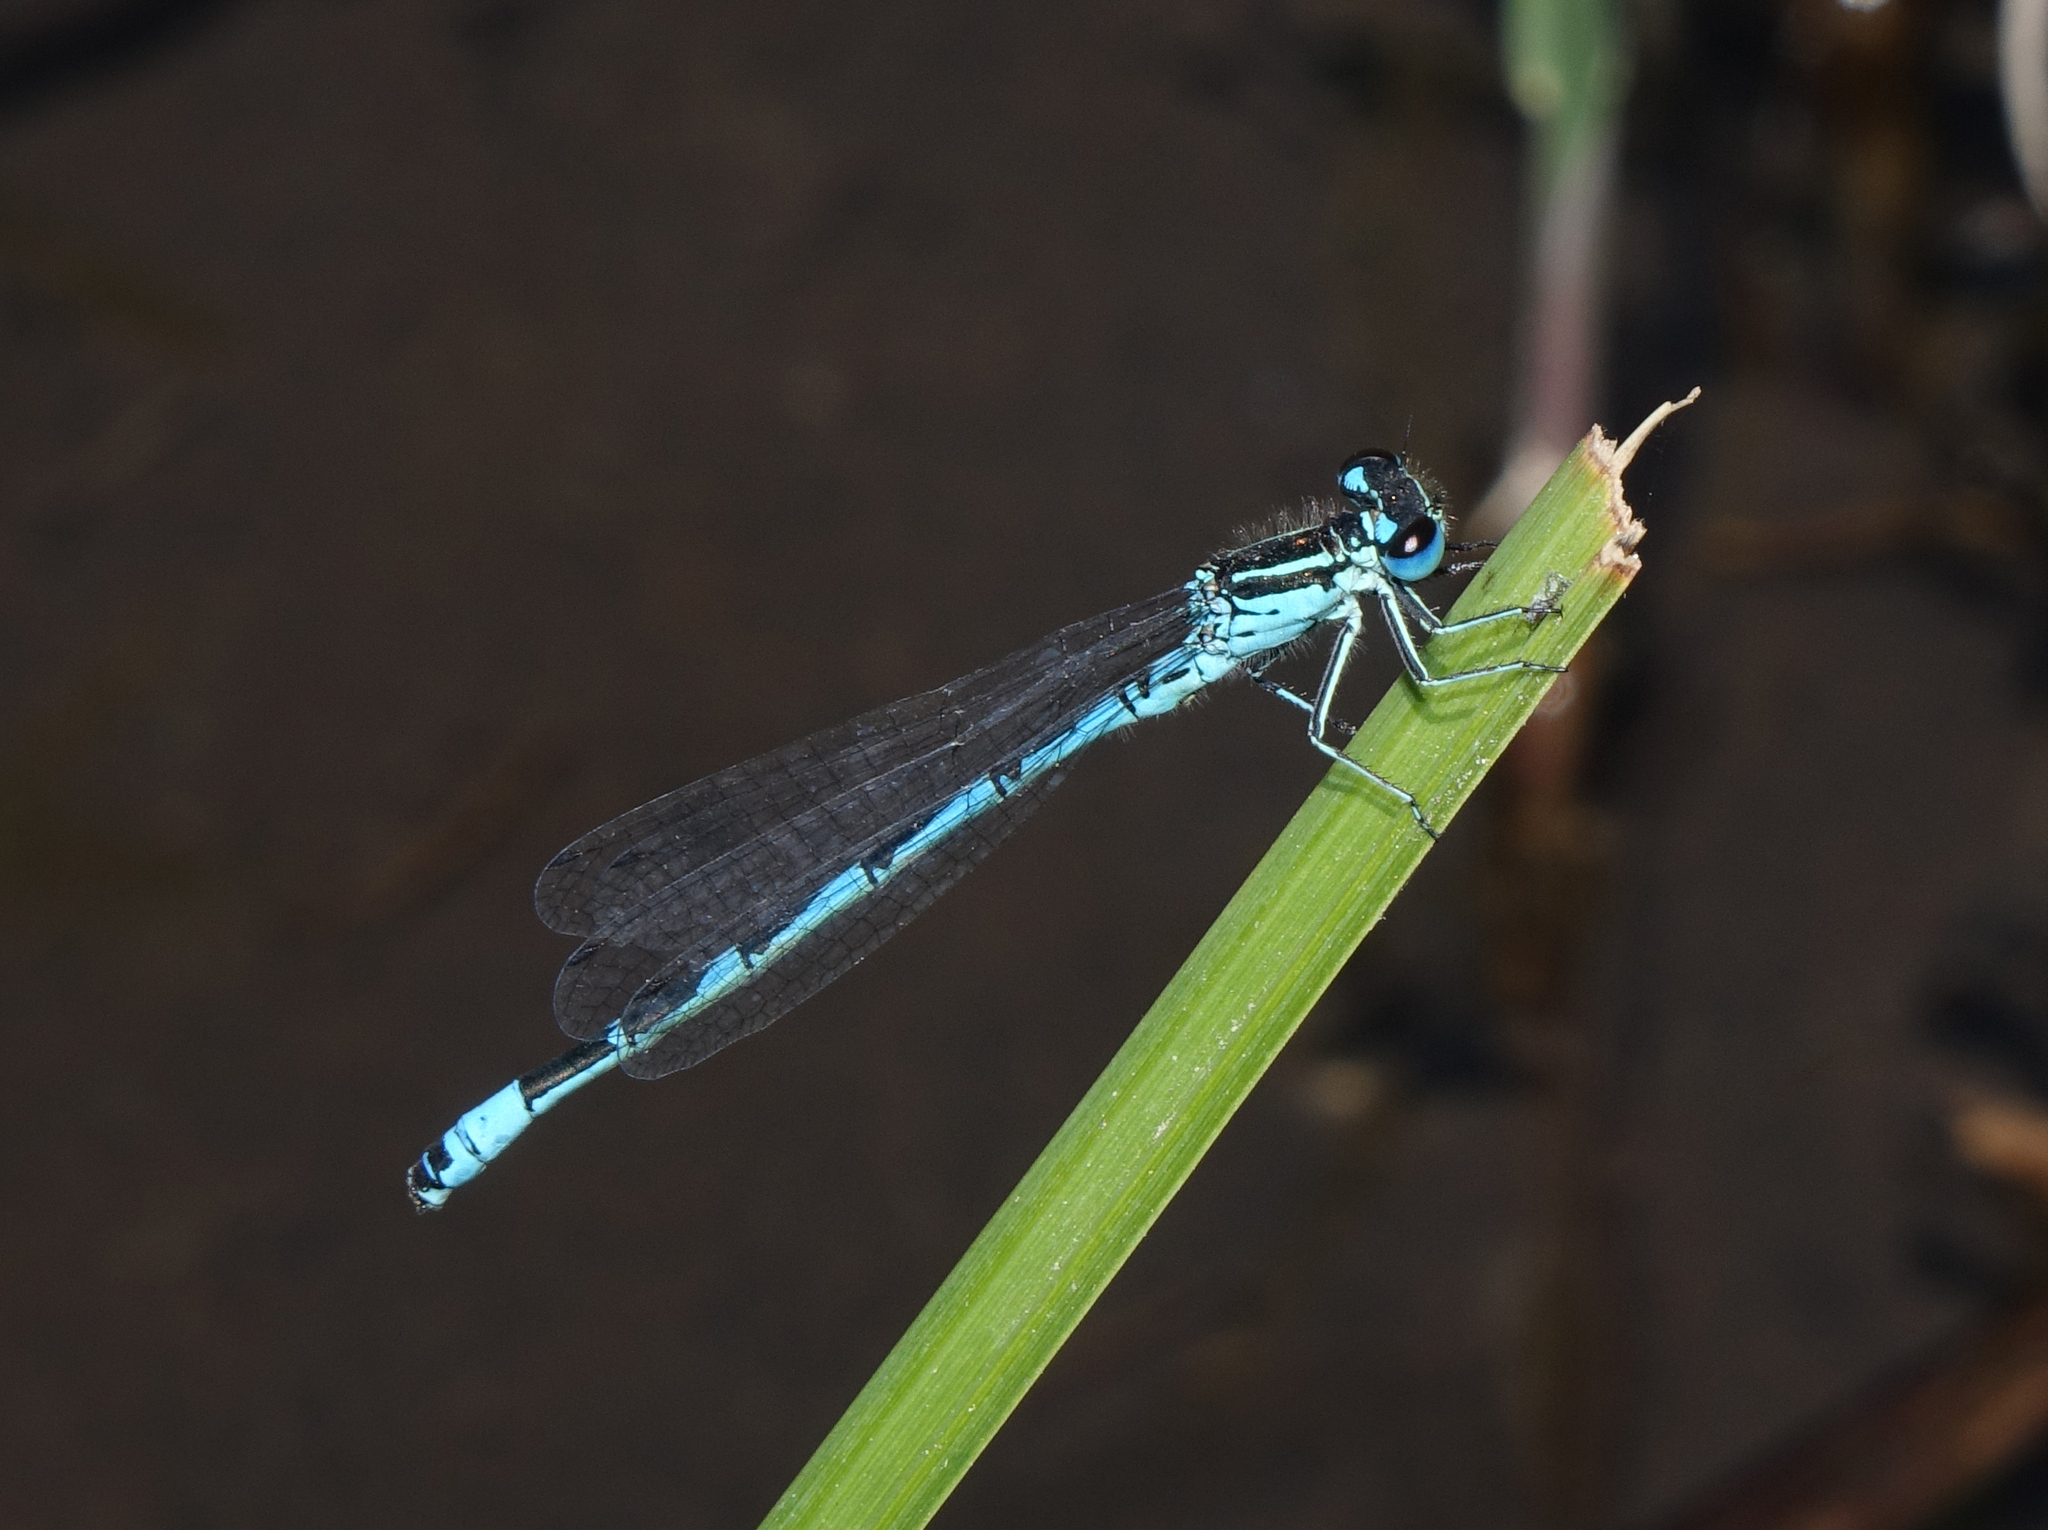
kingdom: Animalia
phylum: Arthropoda
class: Insecta
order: Odonata
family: Coenagrionidae
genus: Coenagrion
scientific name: Coenagrion ornatum
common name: Ornate bluet
